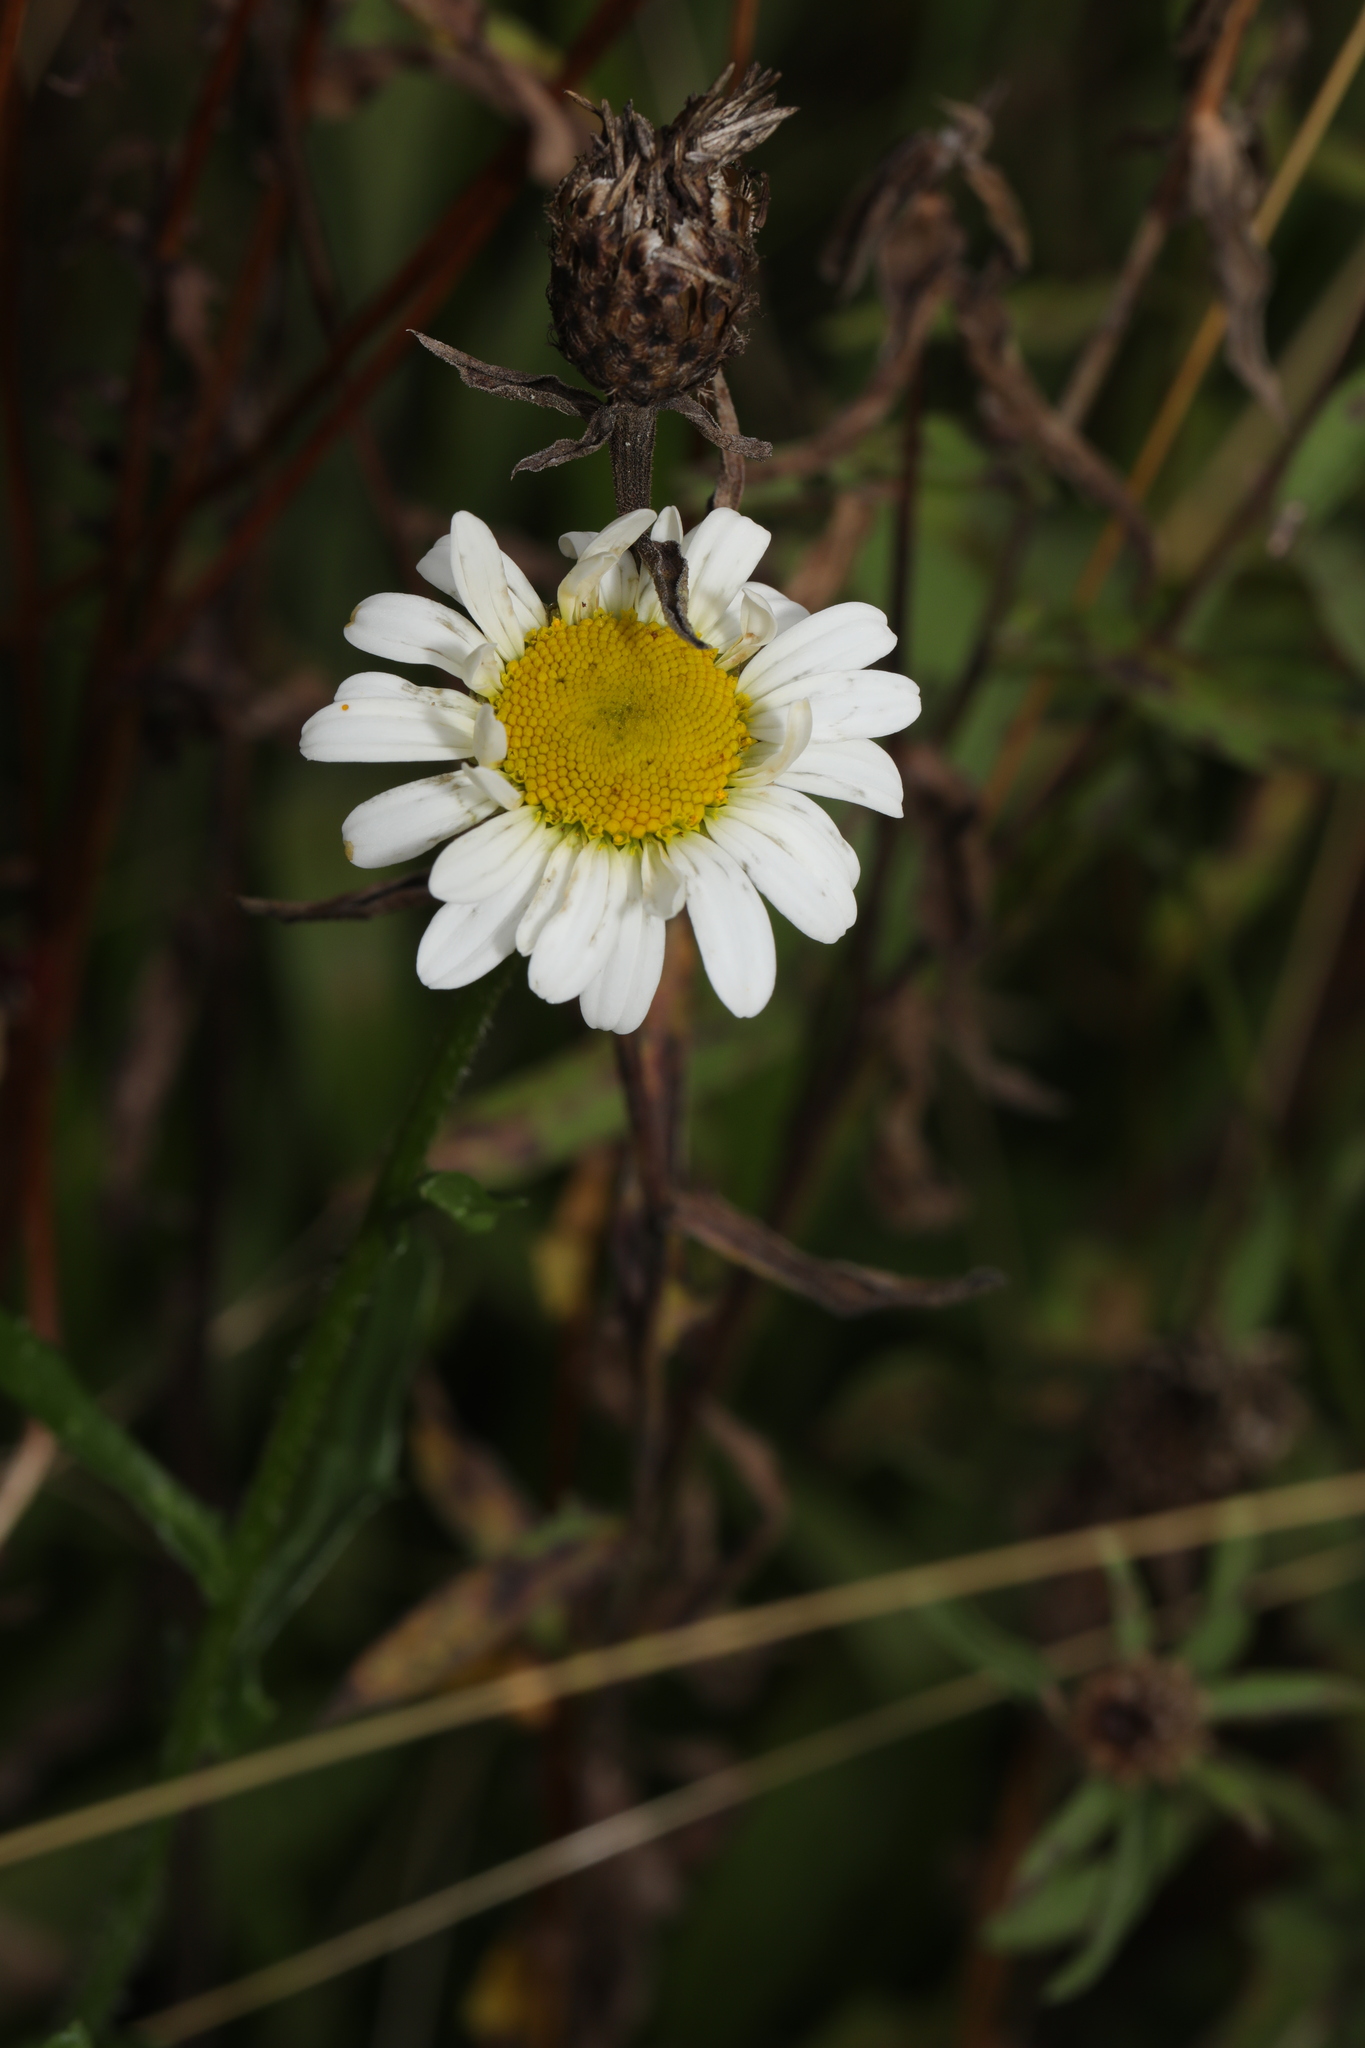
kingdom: Plantae
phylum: Tracheophyta
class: Magnoliopsida
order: Asterales
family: Asteraceae
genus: Leucanthemum
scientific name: Leucanthemum vulgare
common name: Oxeye daisy
